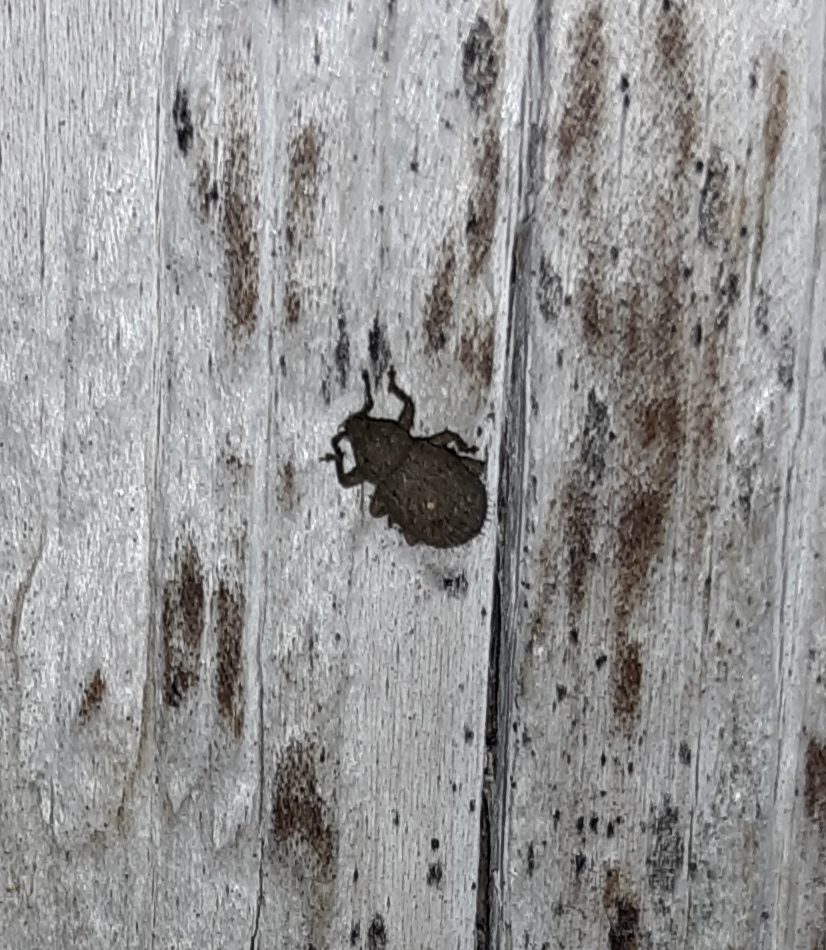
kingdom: Animalia
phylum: Arthropoda
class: Insecta
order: Coleoptera
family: Curculionidae
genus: Phyxelis
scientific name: Phyxelis rigidus
